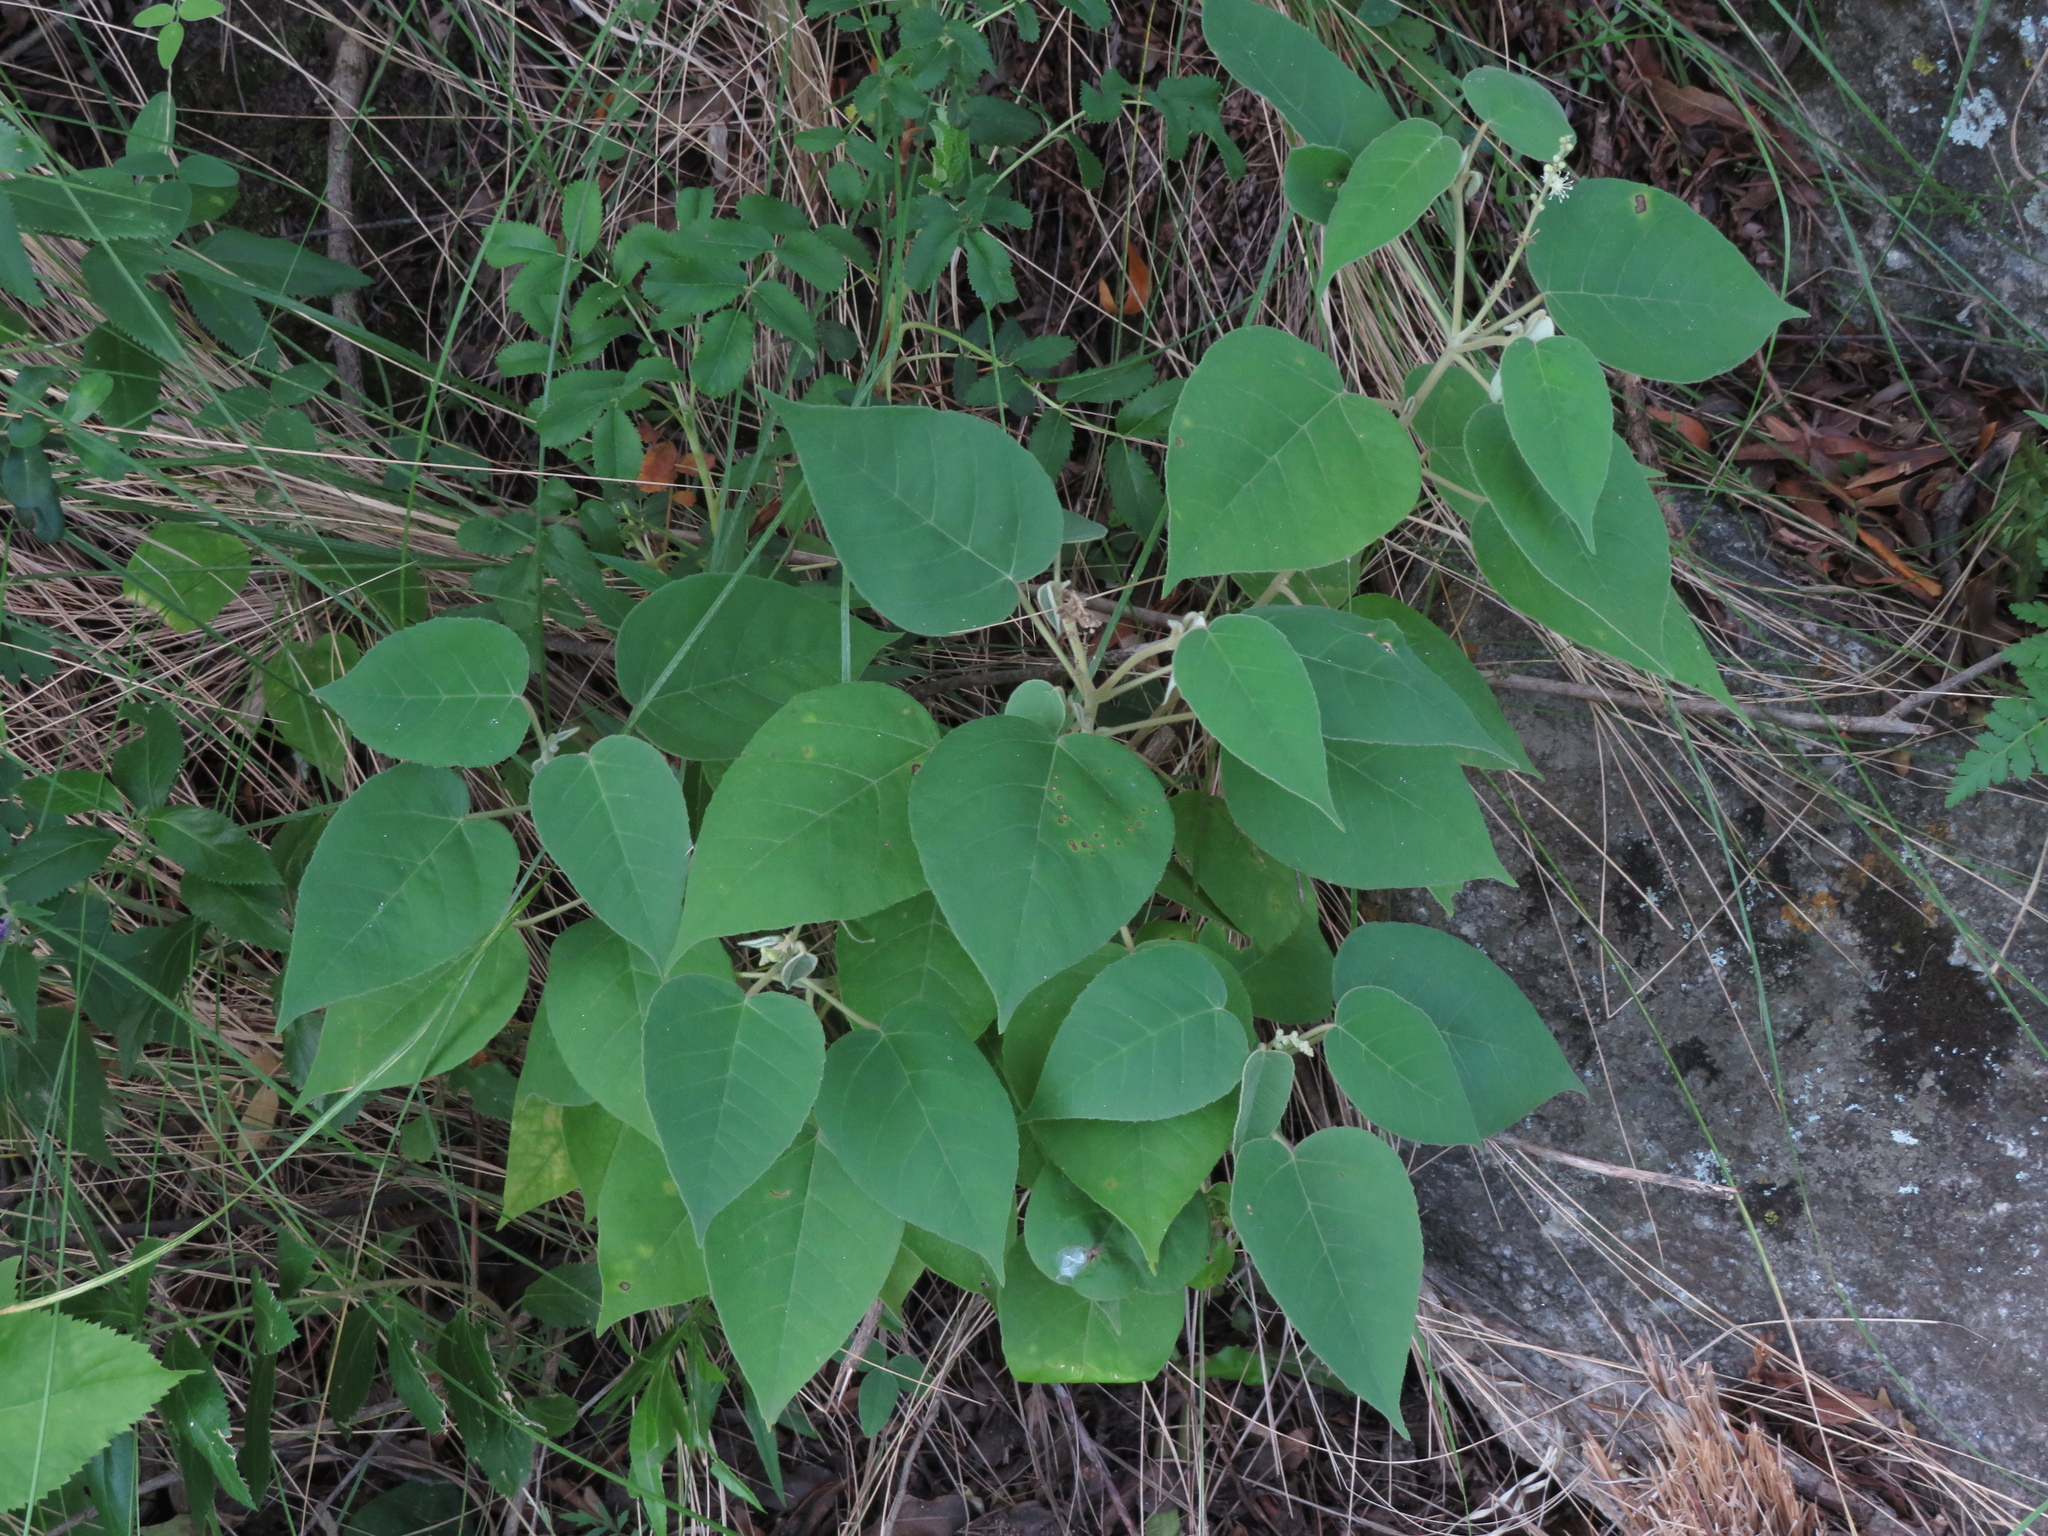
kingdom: Plantae
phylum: Tracheophyta
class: Magnoliopsida
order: Malpighiales
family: Euphorbiaceae
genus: Croton
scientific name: Croton lachnostachyus
